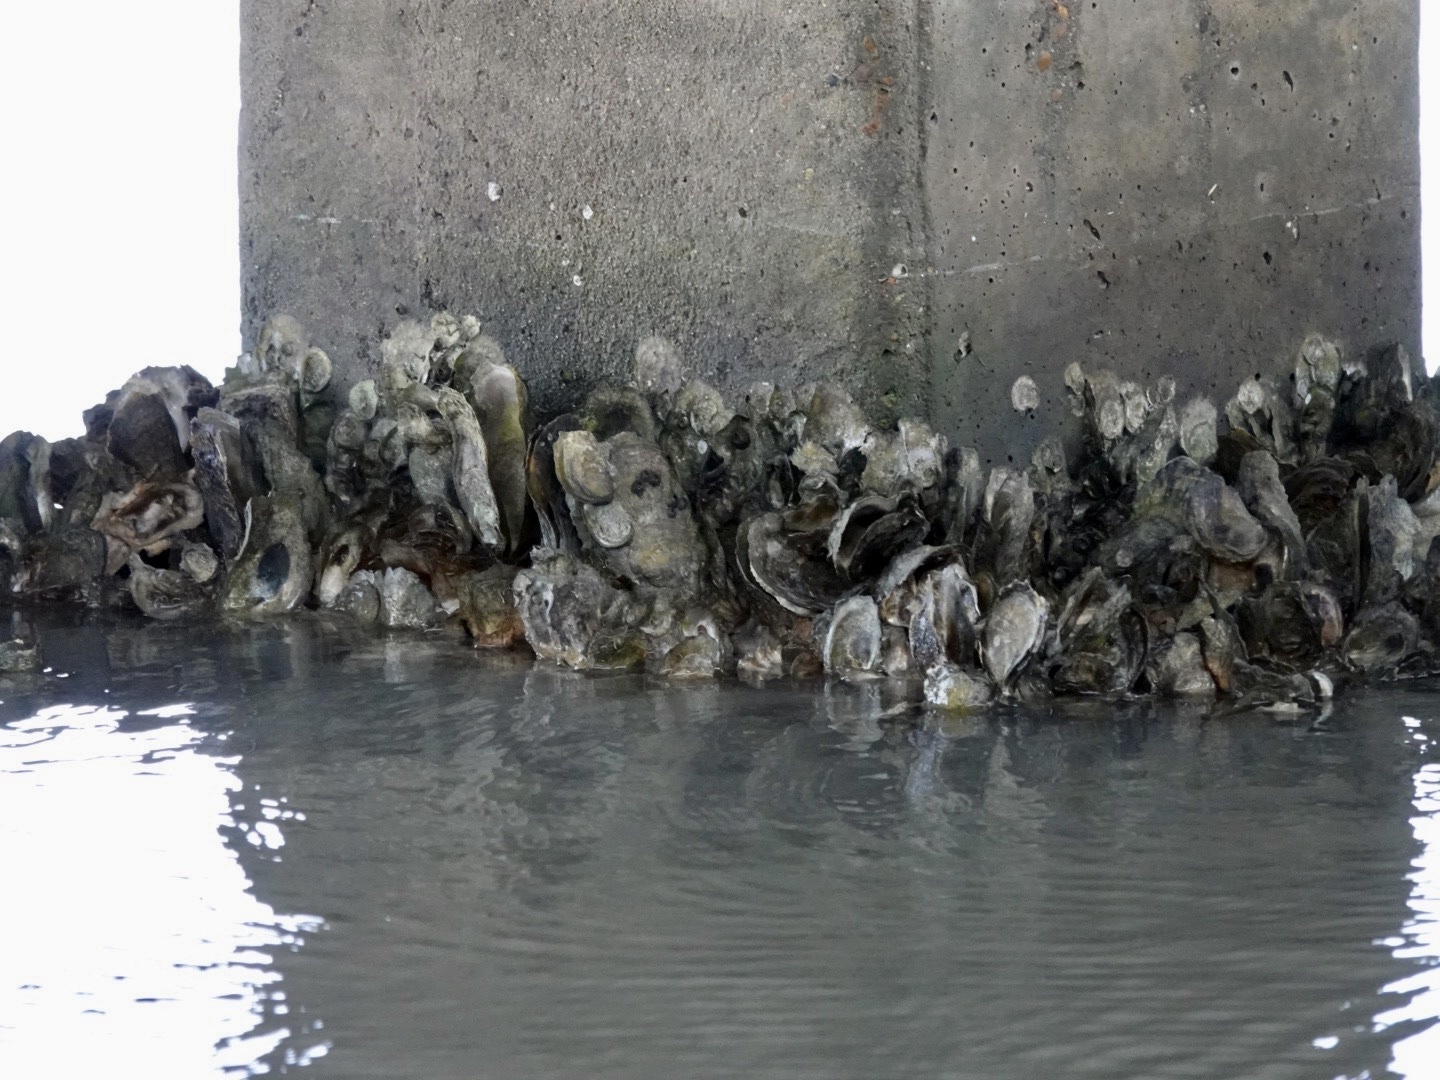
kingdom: Animalia
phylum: Mollusca
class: Bivalvia
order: Ostreida
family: Ostreidae
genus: Crassostrea
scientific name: Crassostrea virginica
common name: American oyster
